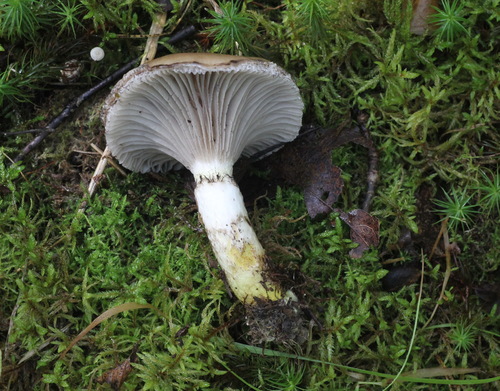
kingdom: Fungi
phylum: Basidiomycota
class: Agaricomycetes
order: Boletales
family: Gomphidiaceae
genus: Gomphidius
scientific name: Gomphidius glutinosus
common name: Slimy spike
